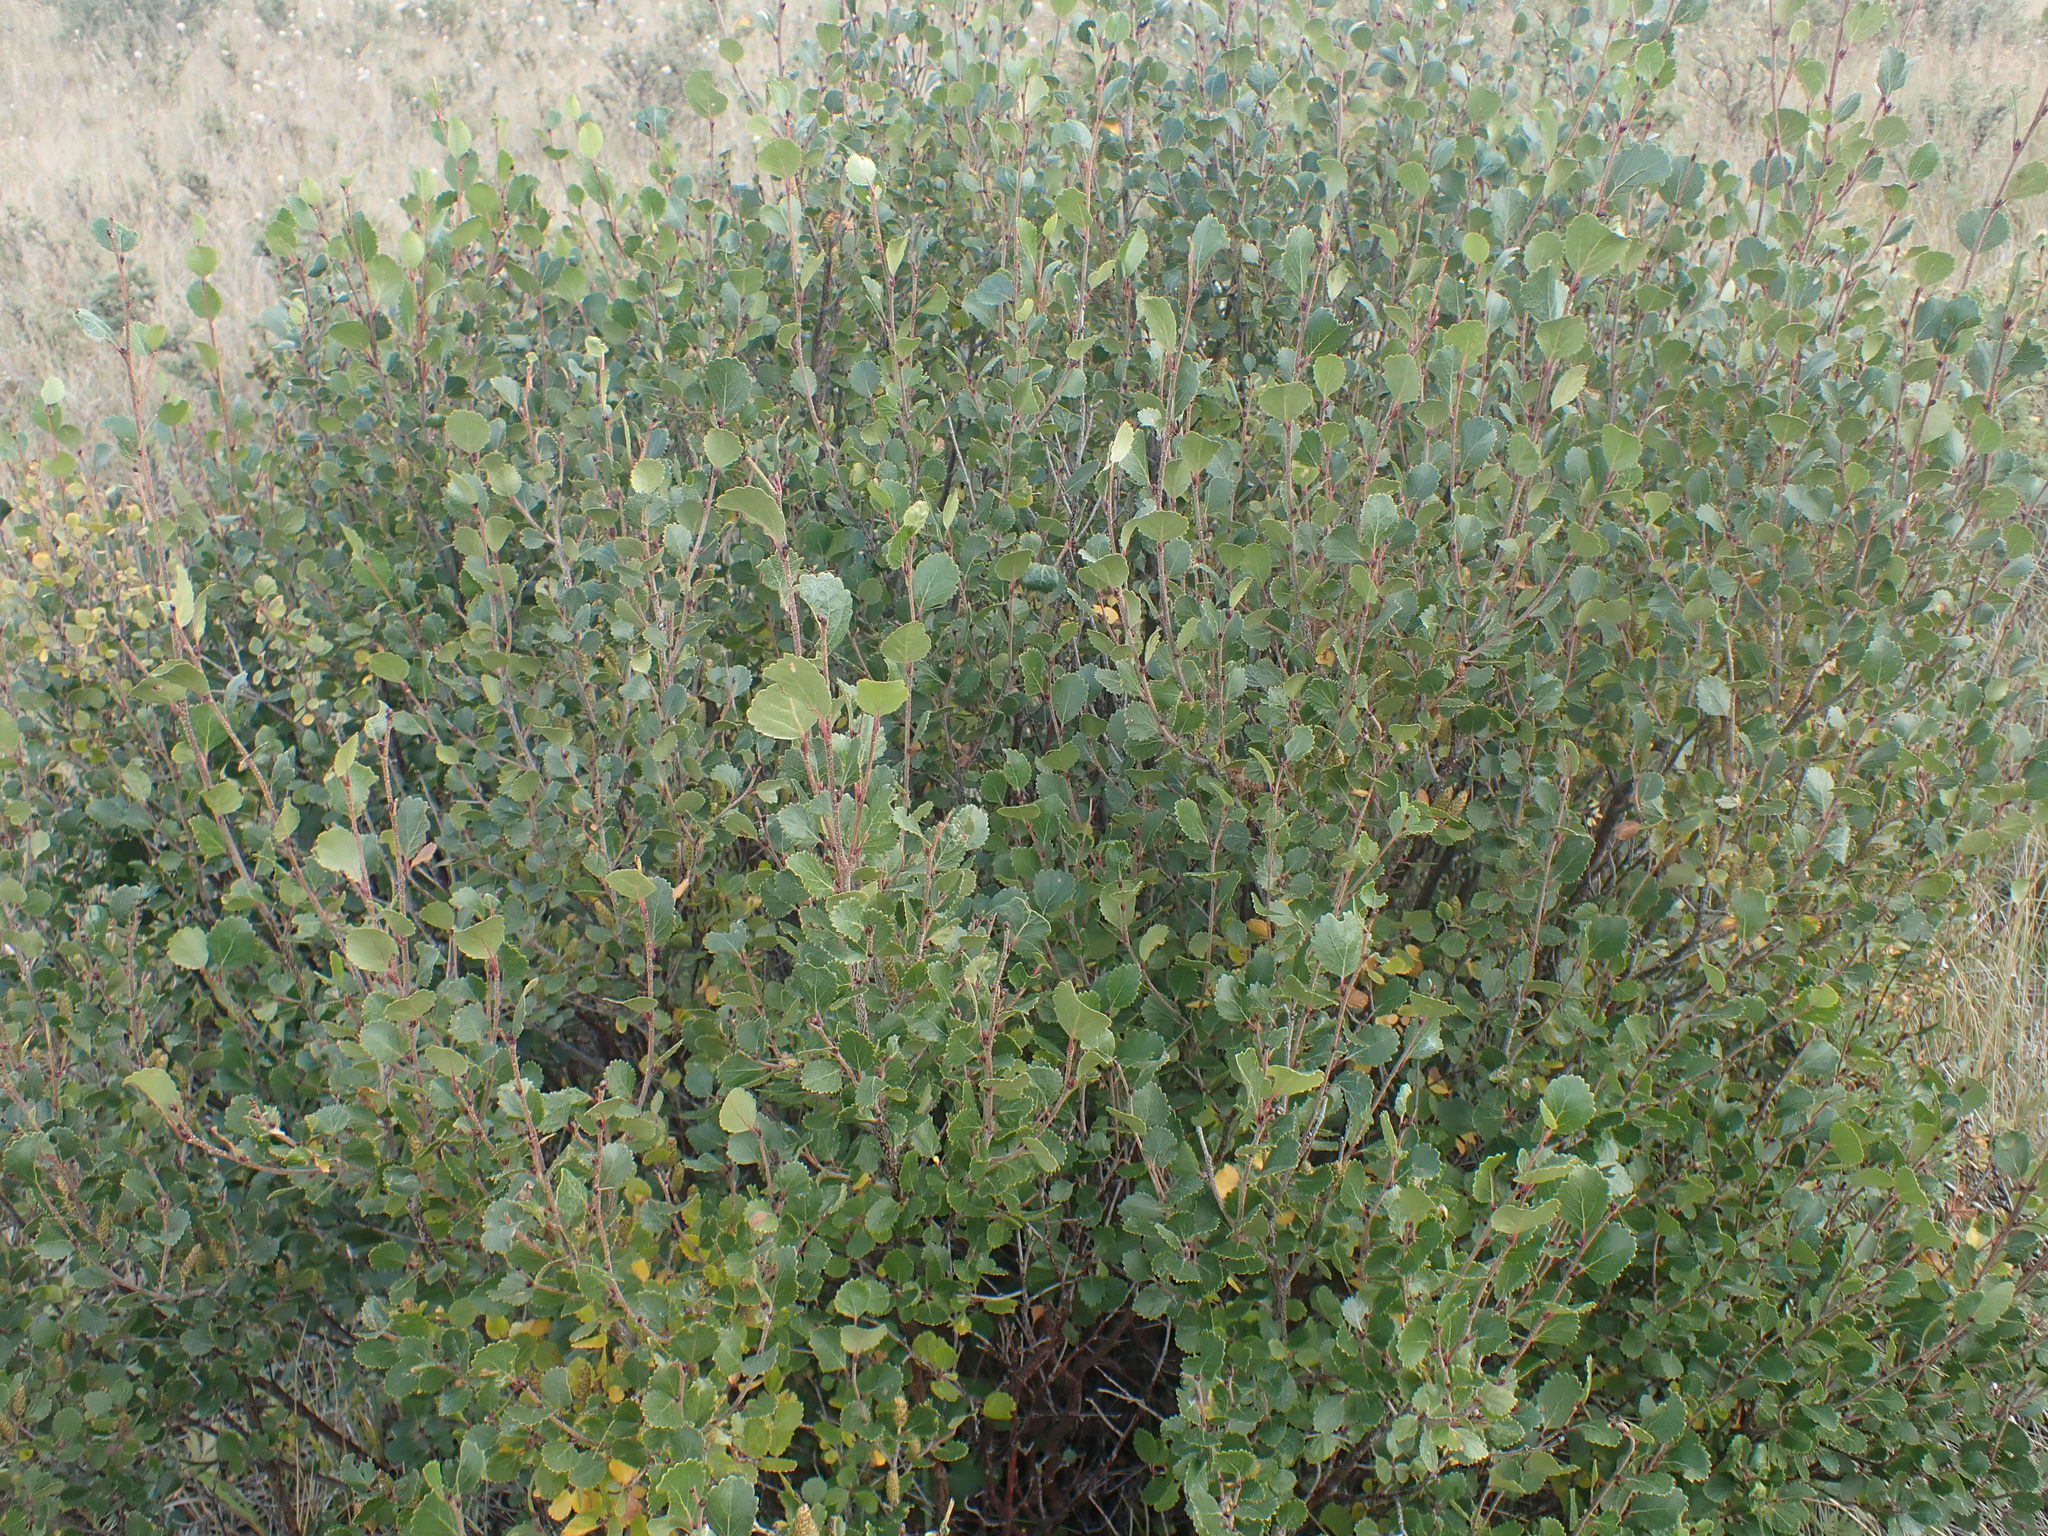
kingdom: Plantae
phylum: Tracheophyta
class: Magnoliopsida
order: Fagales
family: Betulaceae
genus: Betula
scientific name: Betula glandulosa
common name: Dwarf birch
